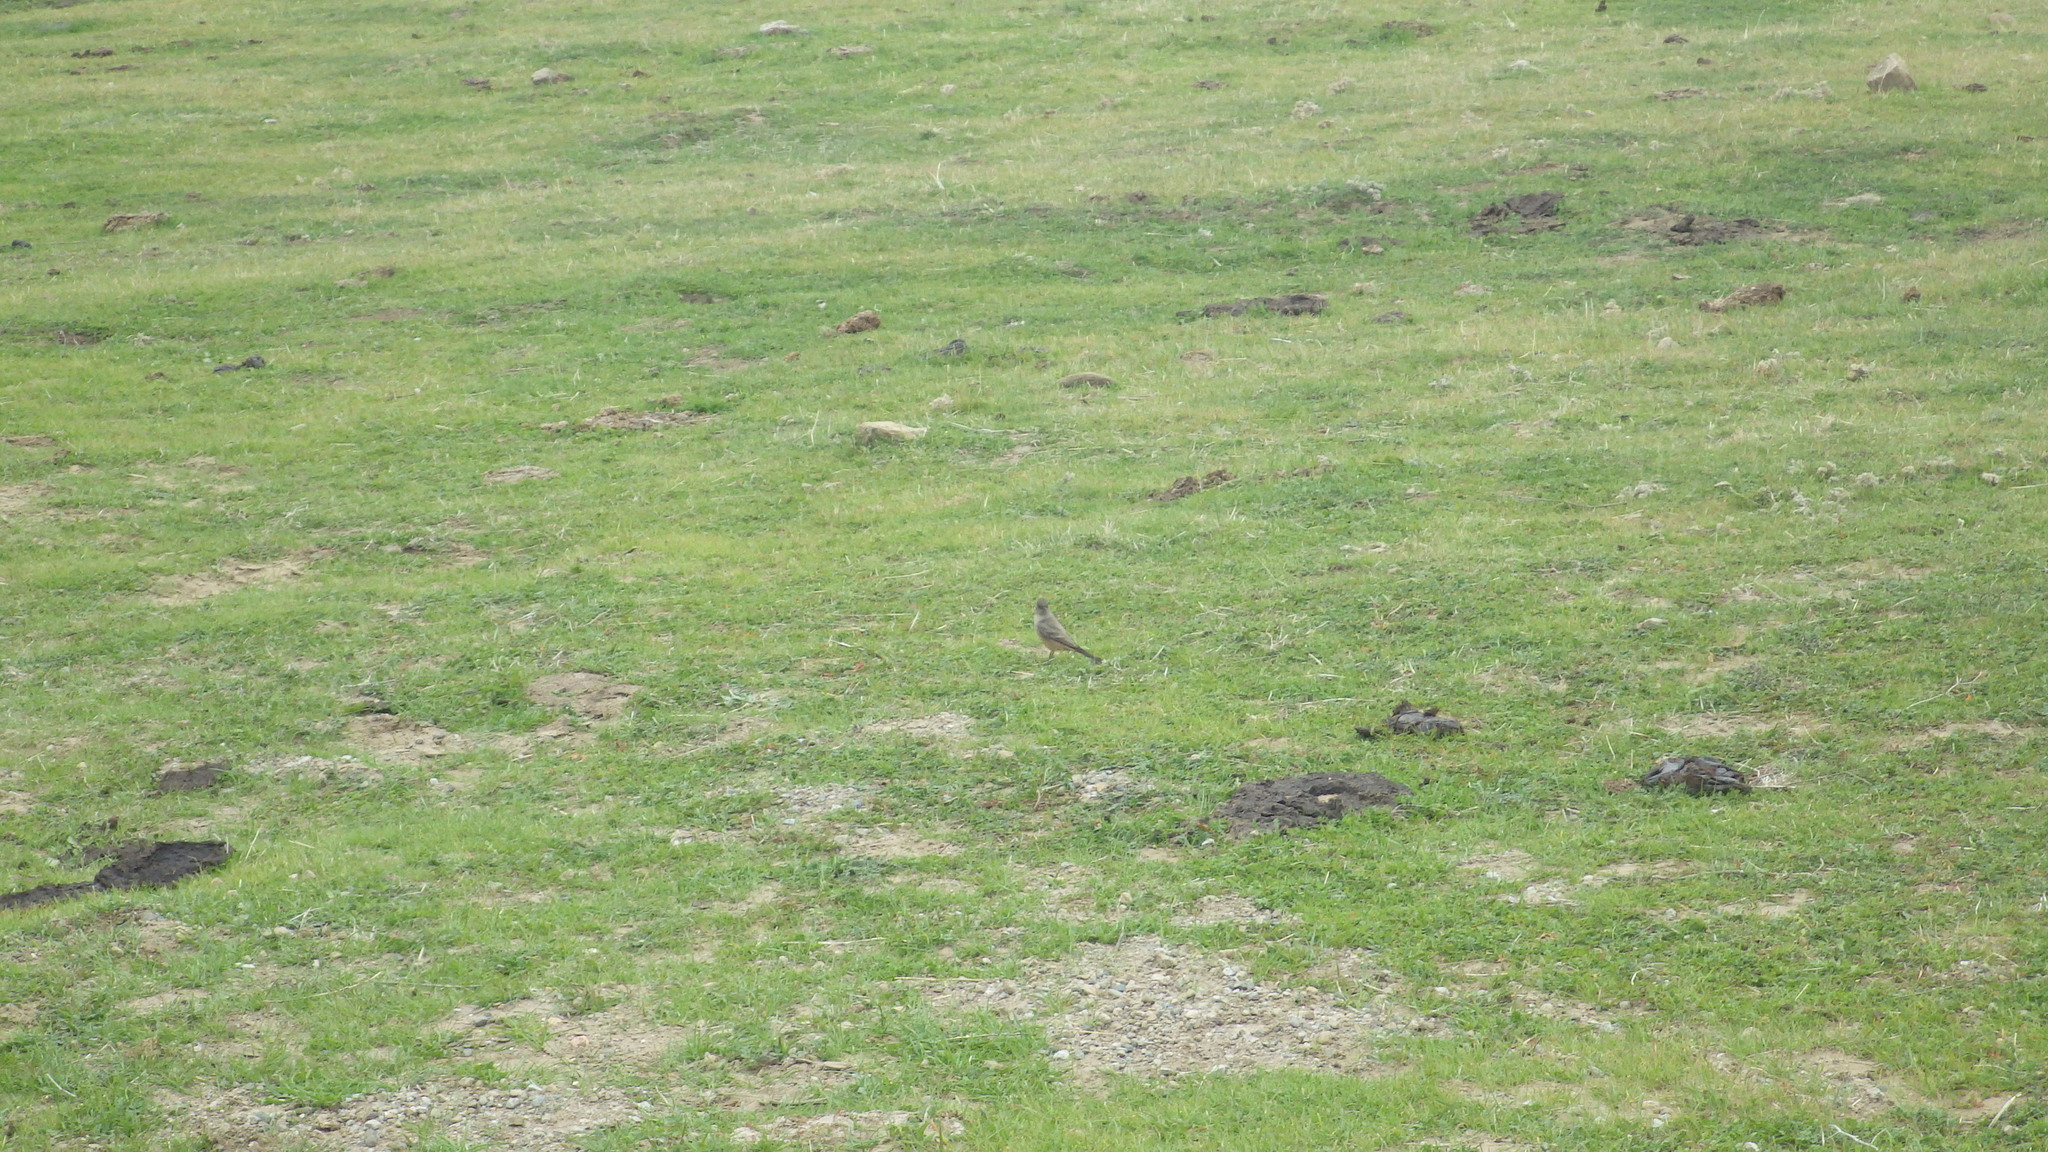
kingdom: Animalia
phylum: Chordata
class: Aves
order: Passeriformes
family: Tyrannidae
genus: Sayornis
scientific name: Sayornis saya
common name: Say's phoebe
